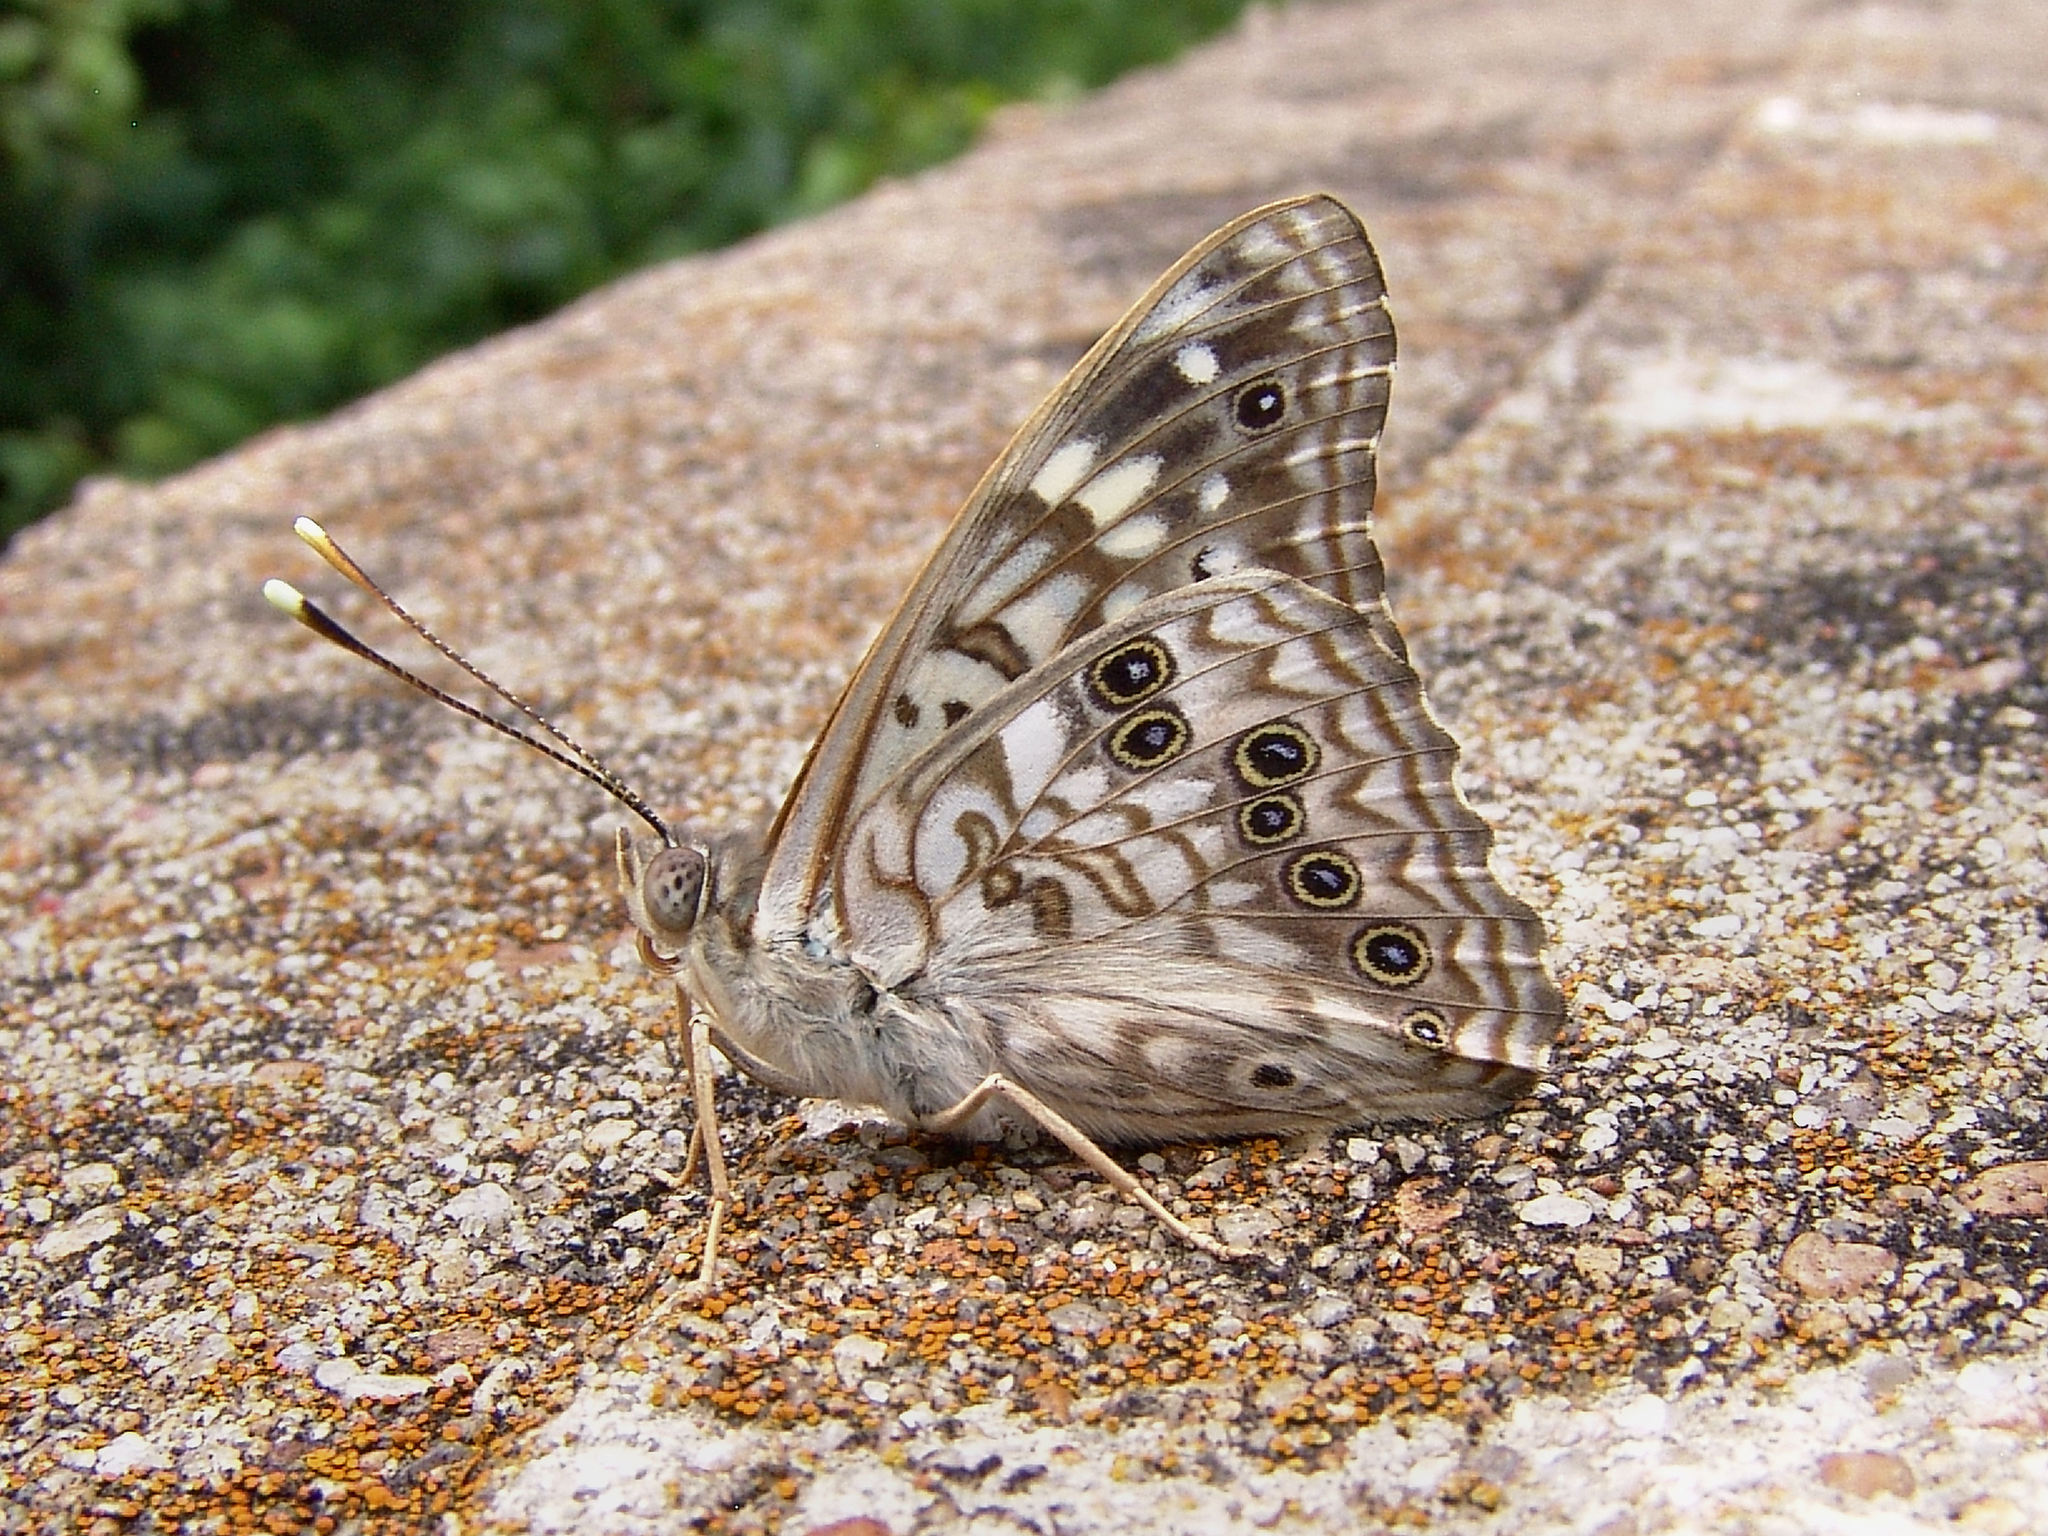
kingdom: Animalia
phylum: Arthropoda
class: Insecta
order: Lepidoptera
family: Nymphalidae
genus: Asterocampa
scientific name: Asterocampa celtis
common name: Hackberry emperor
